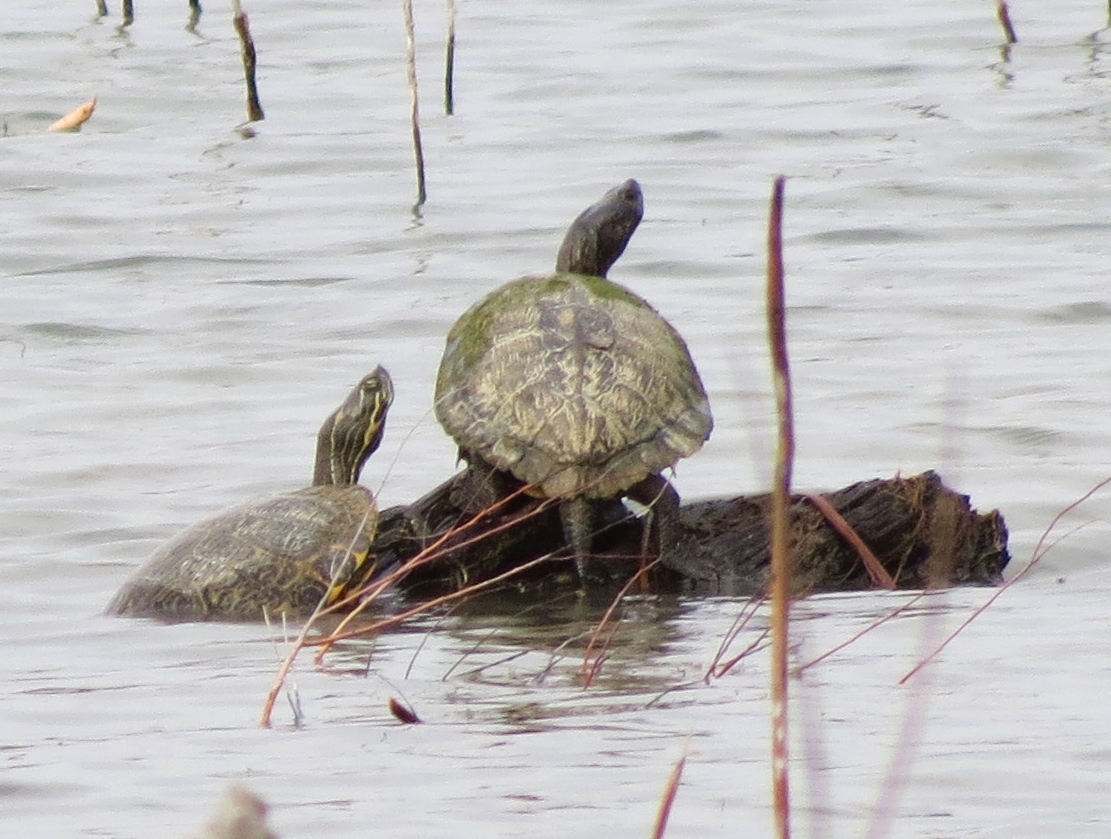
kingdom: Animalia
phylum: Chordata
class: Testudines
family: Emydidae
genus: Trachemys
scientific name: Trachemys scripta
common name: Slider
